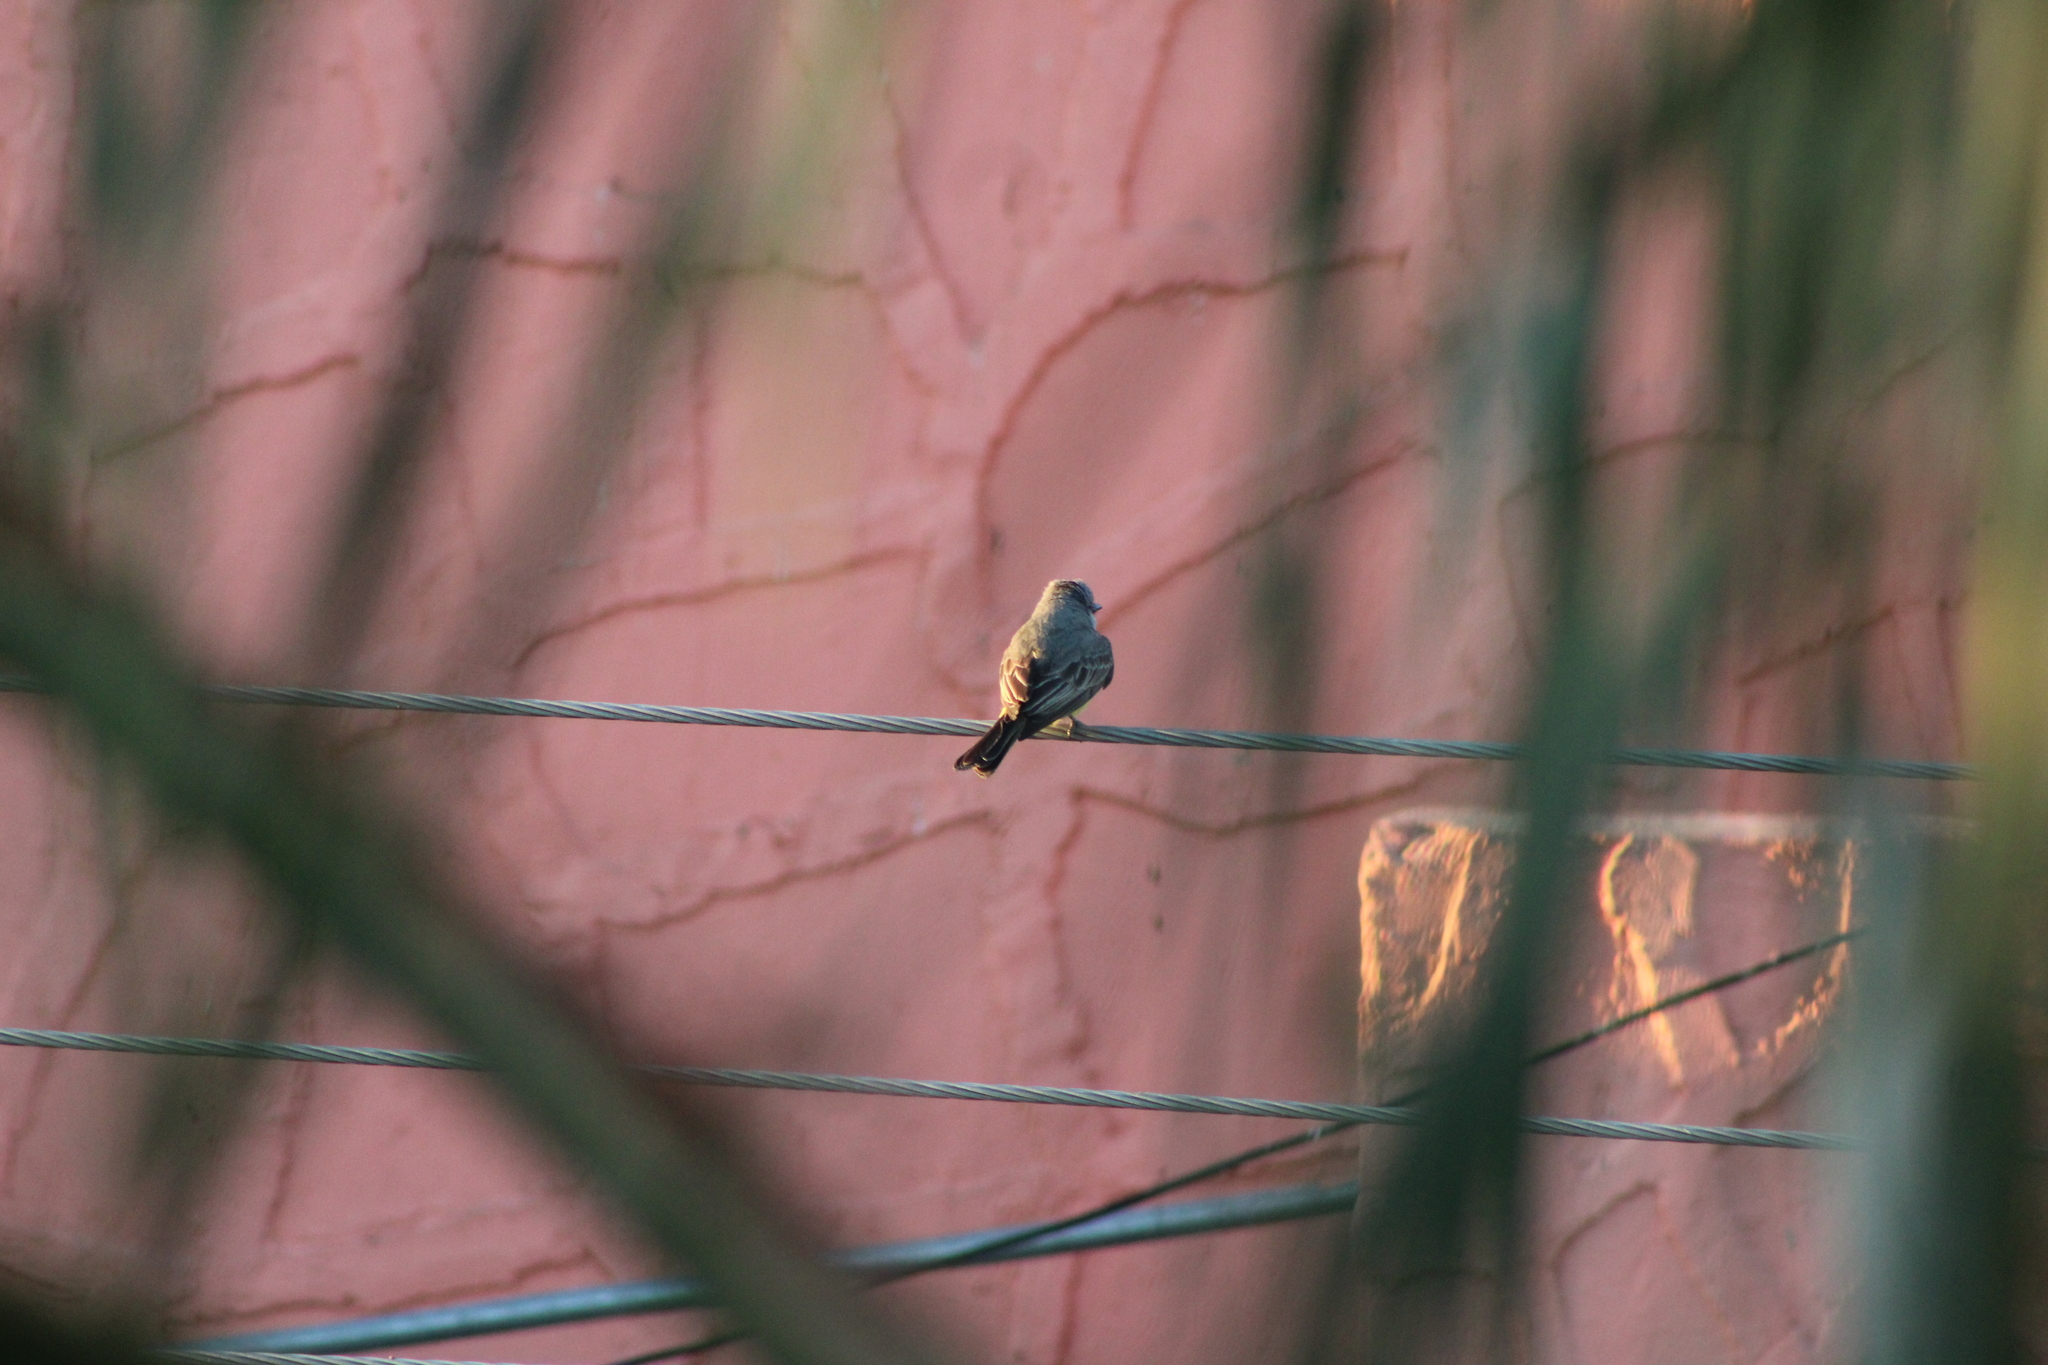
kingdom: Animalia
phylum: Chordata
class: Aves
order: Passeriformes
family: Tyrannidae
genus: Tyrannus
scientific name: Tyrannus vociferans
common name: Cassin's kingbird
